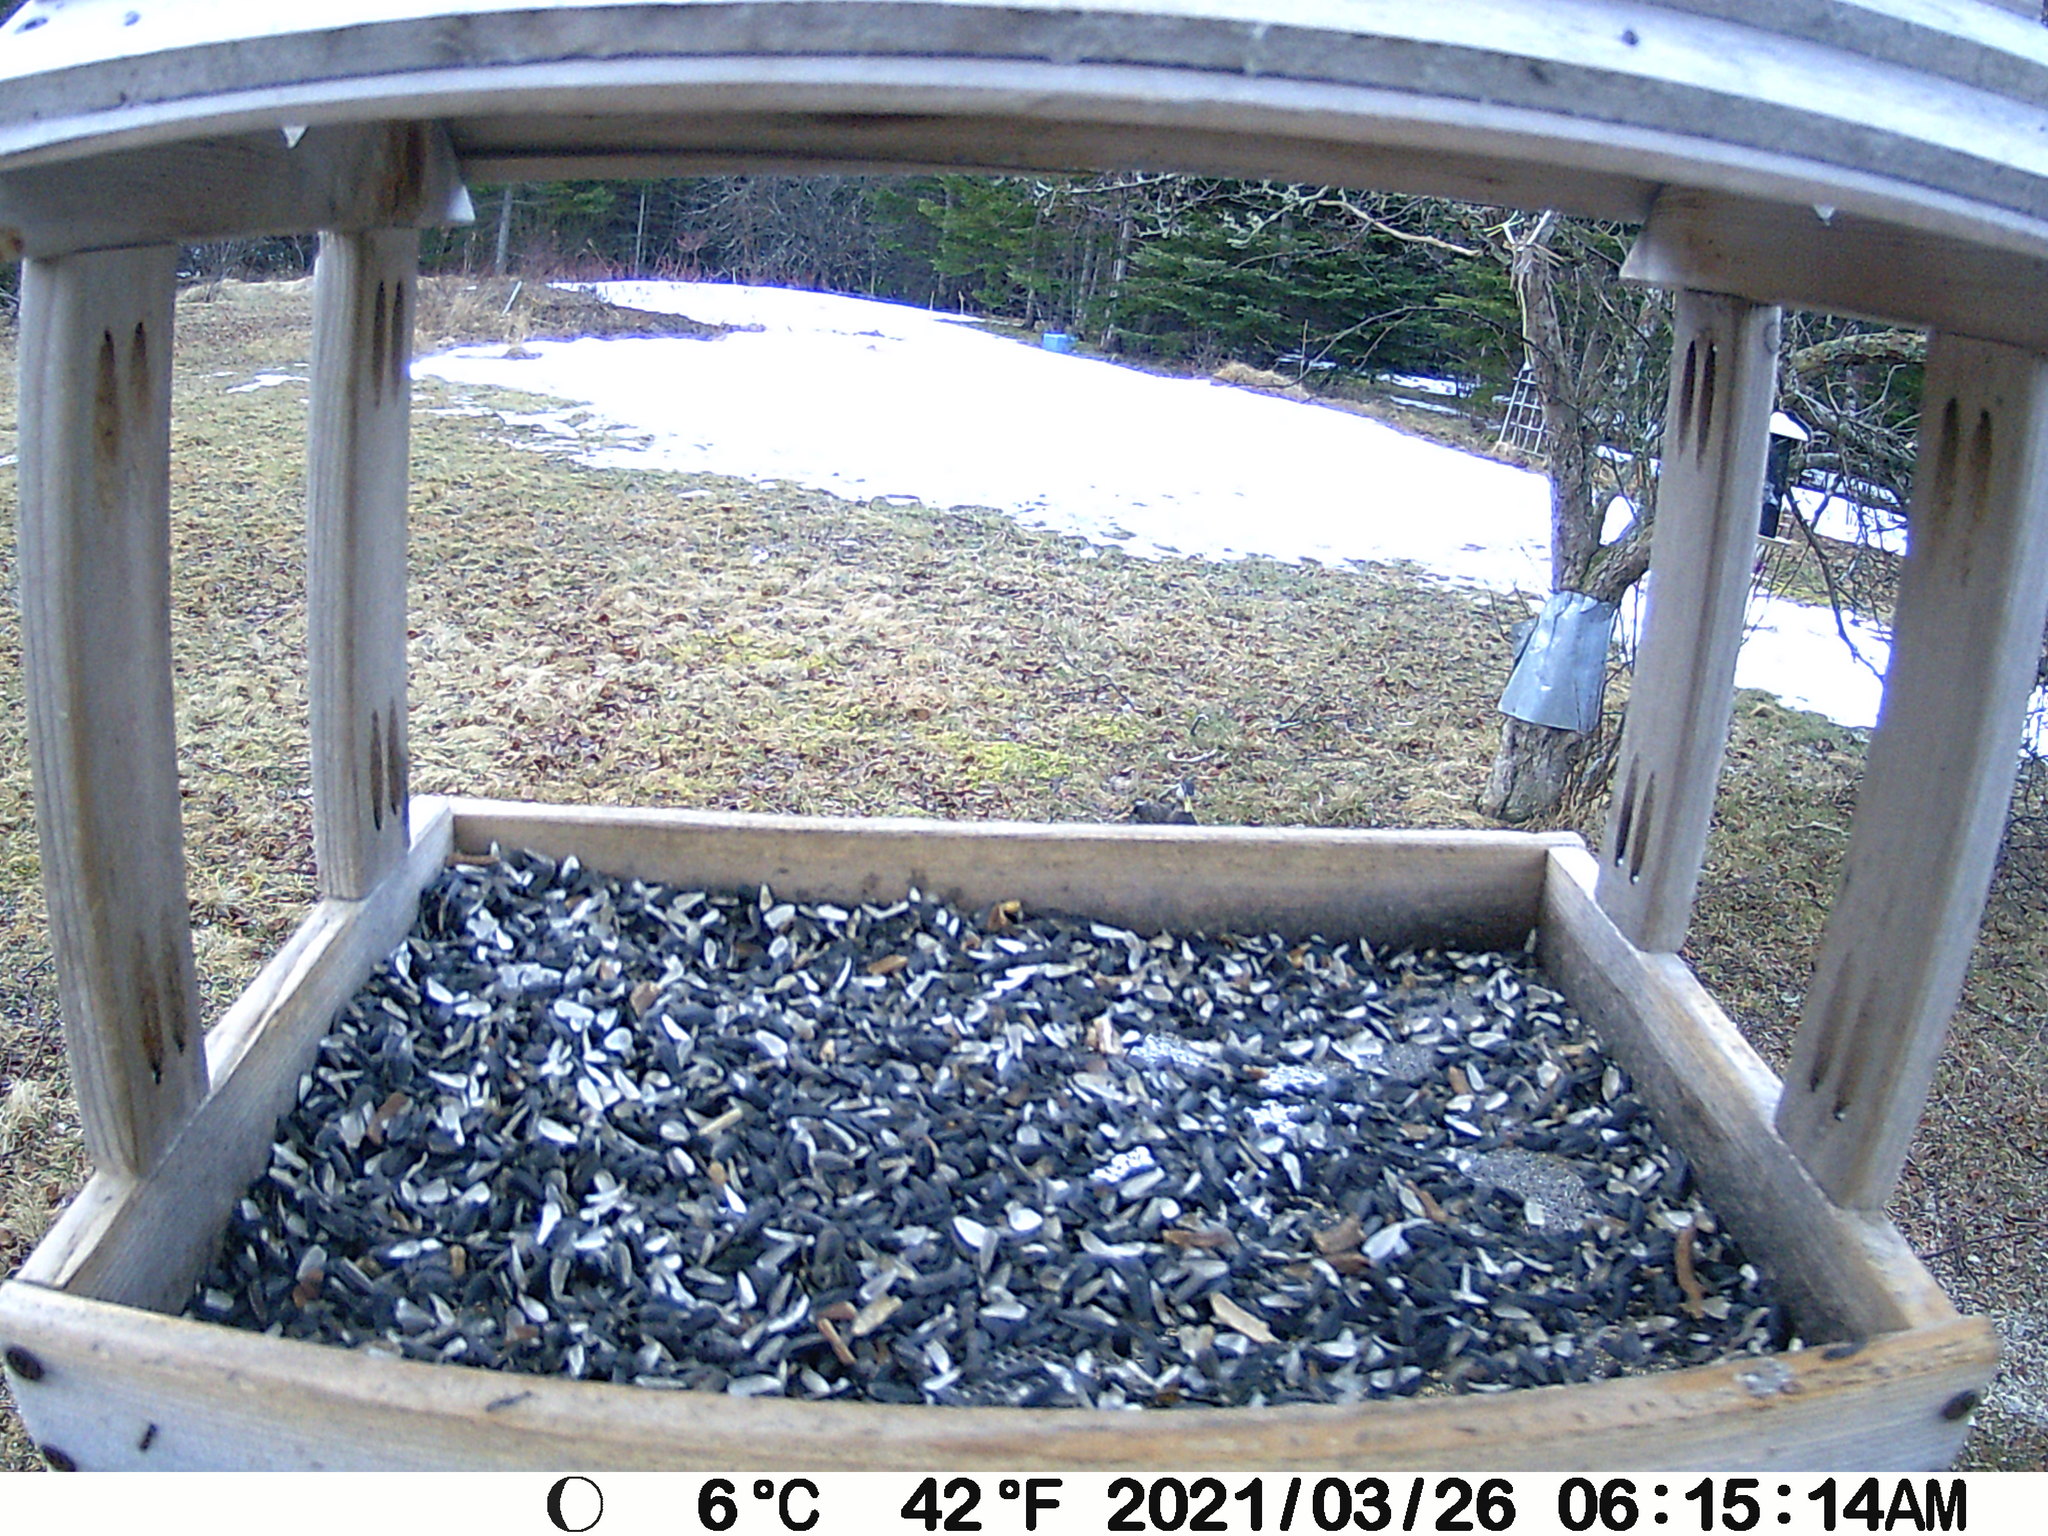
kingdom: Animalia
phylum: Chordata
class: Aves
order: Anseriformes
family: Anatidae
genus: Anas
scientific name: Anas rubripes
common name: American black duck
